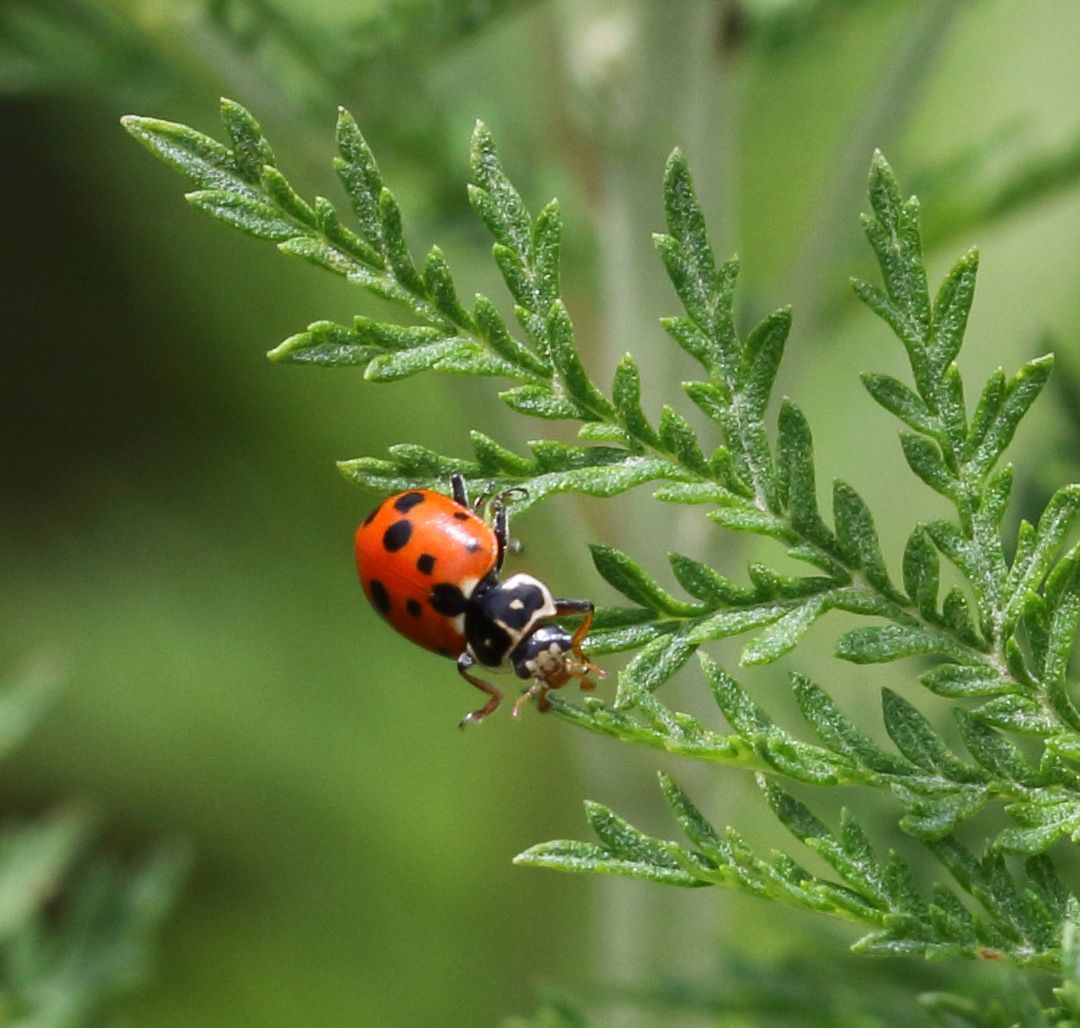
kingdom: Animalia
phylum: Arthropoda
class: Insecta
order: Coleoptera
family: Coccinellidae
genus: Hippodamia
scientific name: Hippodamia variegata
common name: Ladybird beetle
